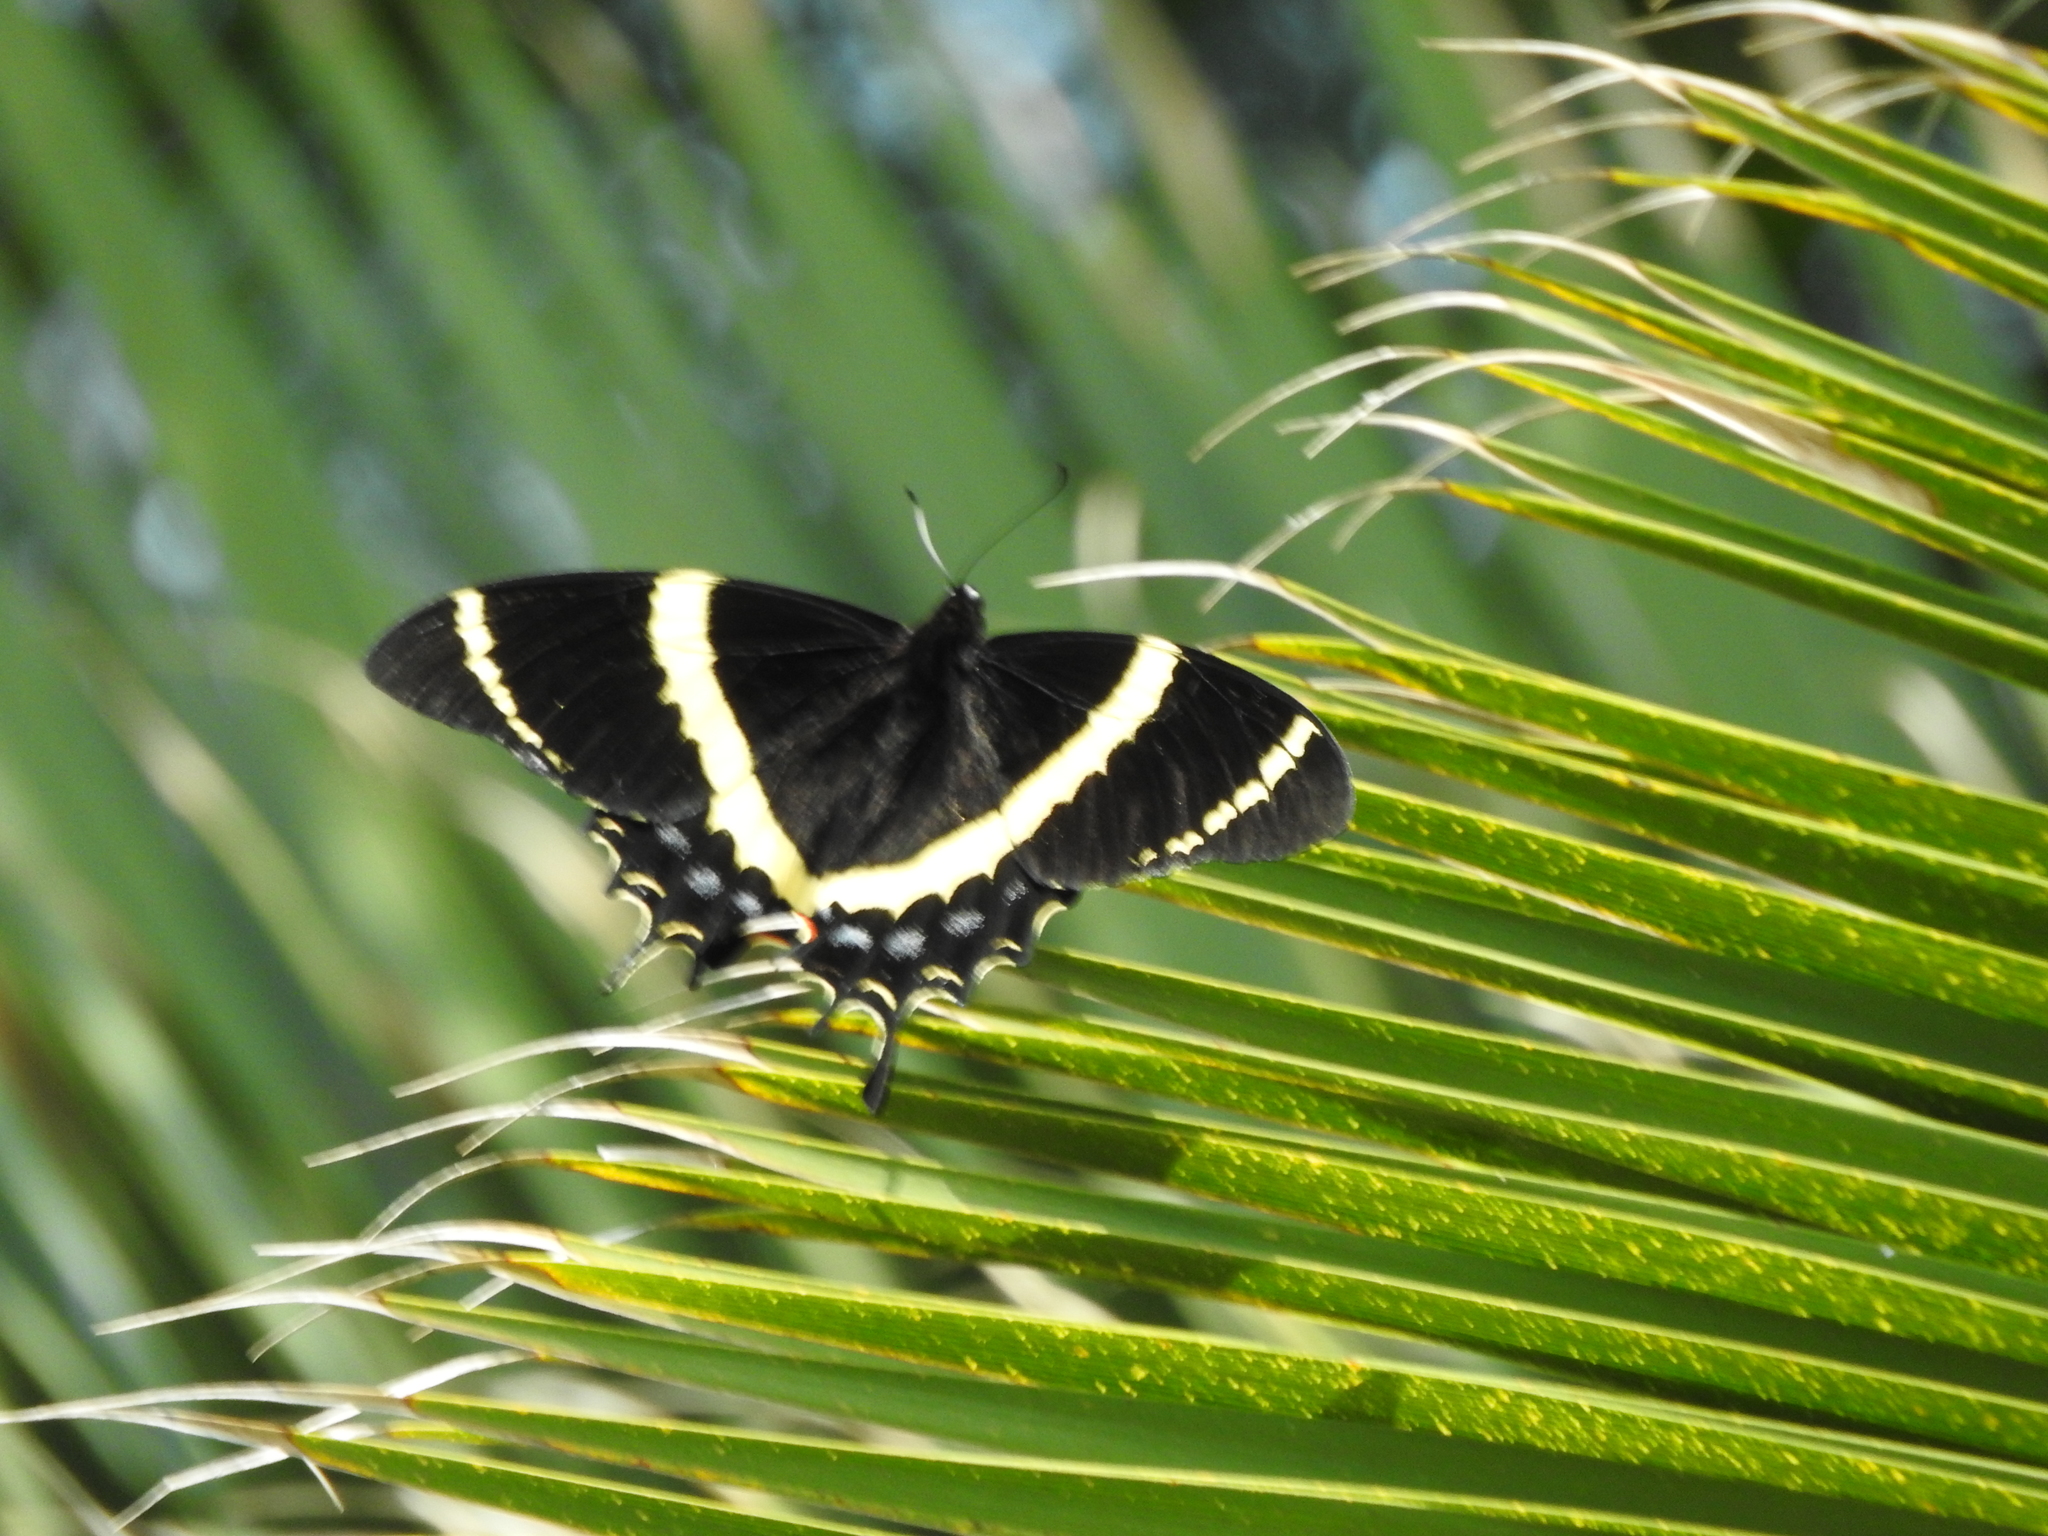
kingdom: Animalia
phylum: Arthropoda
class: Insecta
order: Lepidoptera
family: Papilionidae
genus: Papilio
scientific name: Papilio garamas
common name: Magnificent swallowtail
